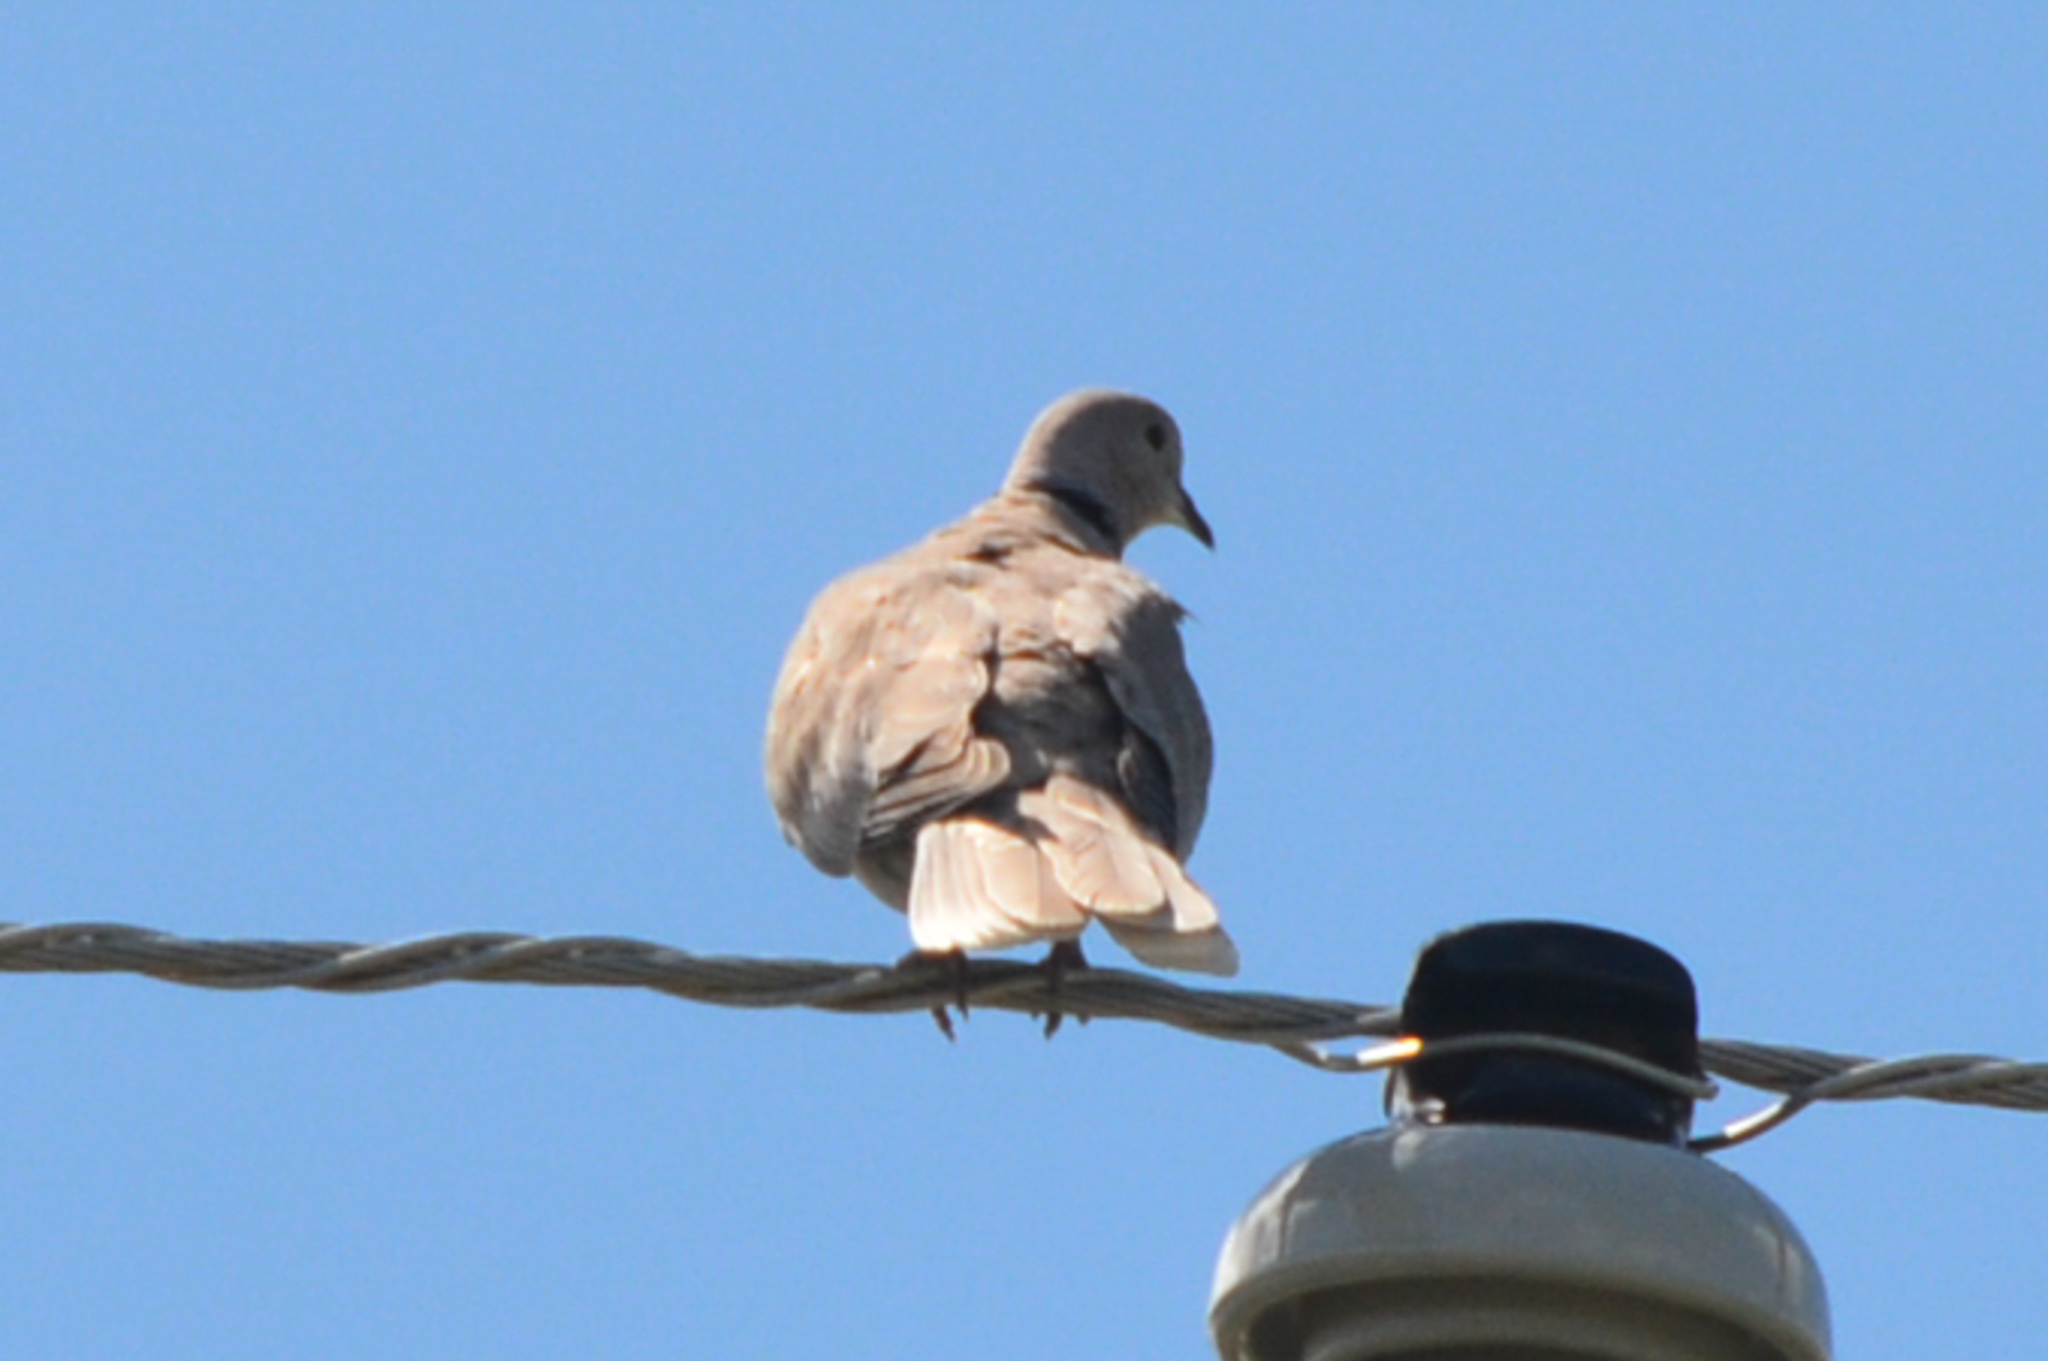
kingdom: Animalia
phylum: Chordata
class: Aves
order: Columbiformes
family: Columbidae
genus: Streptopelia
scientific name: Streptopelia decaocto
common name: Eurasian collared dove
